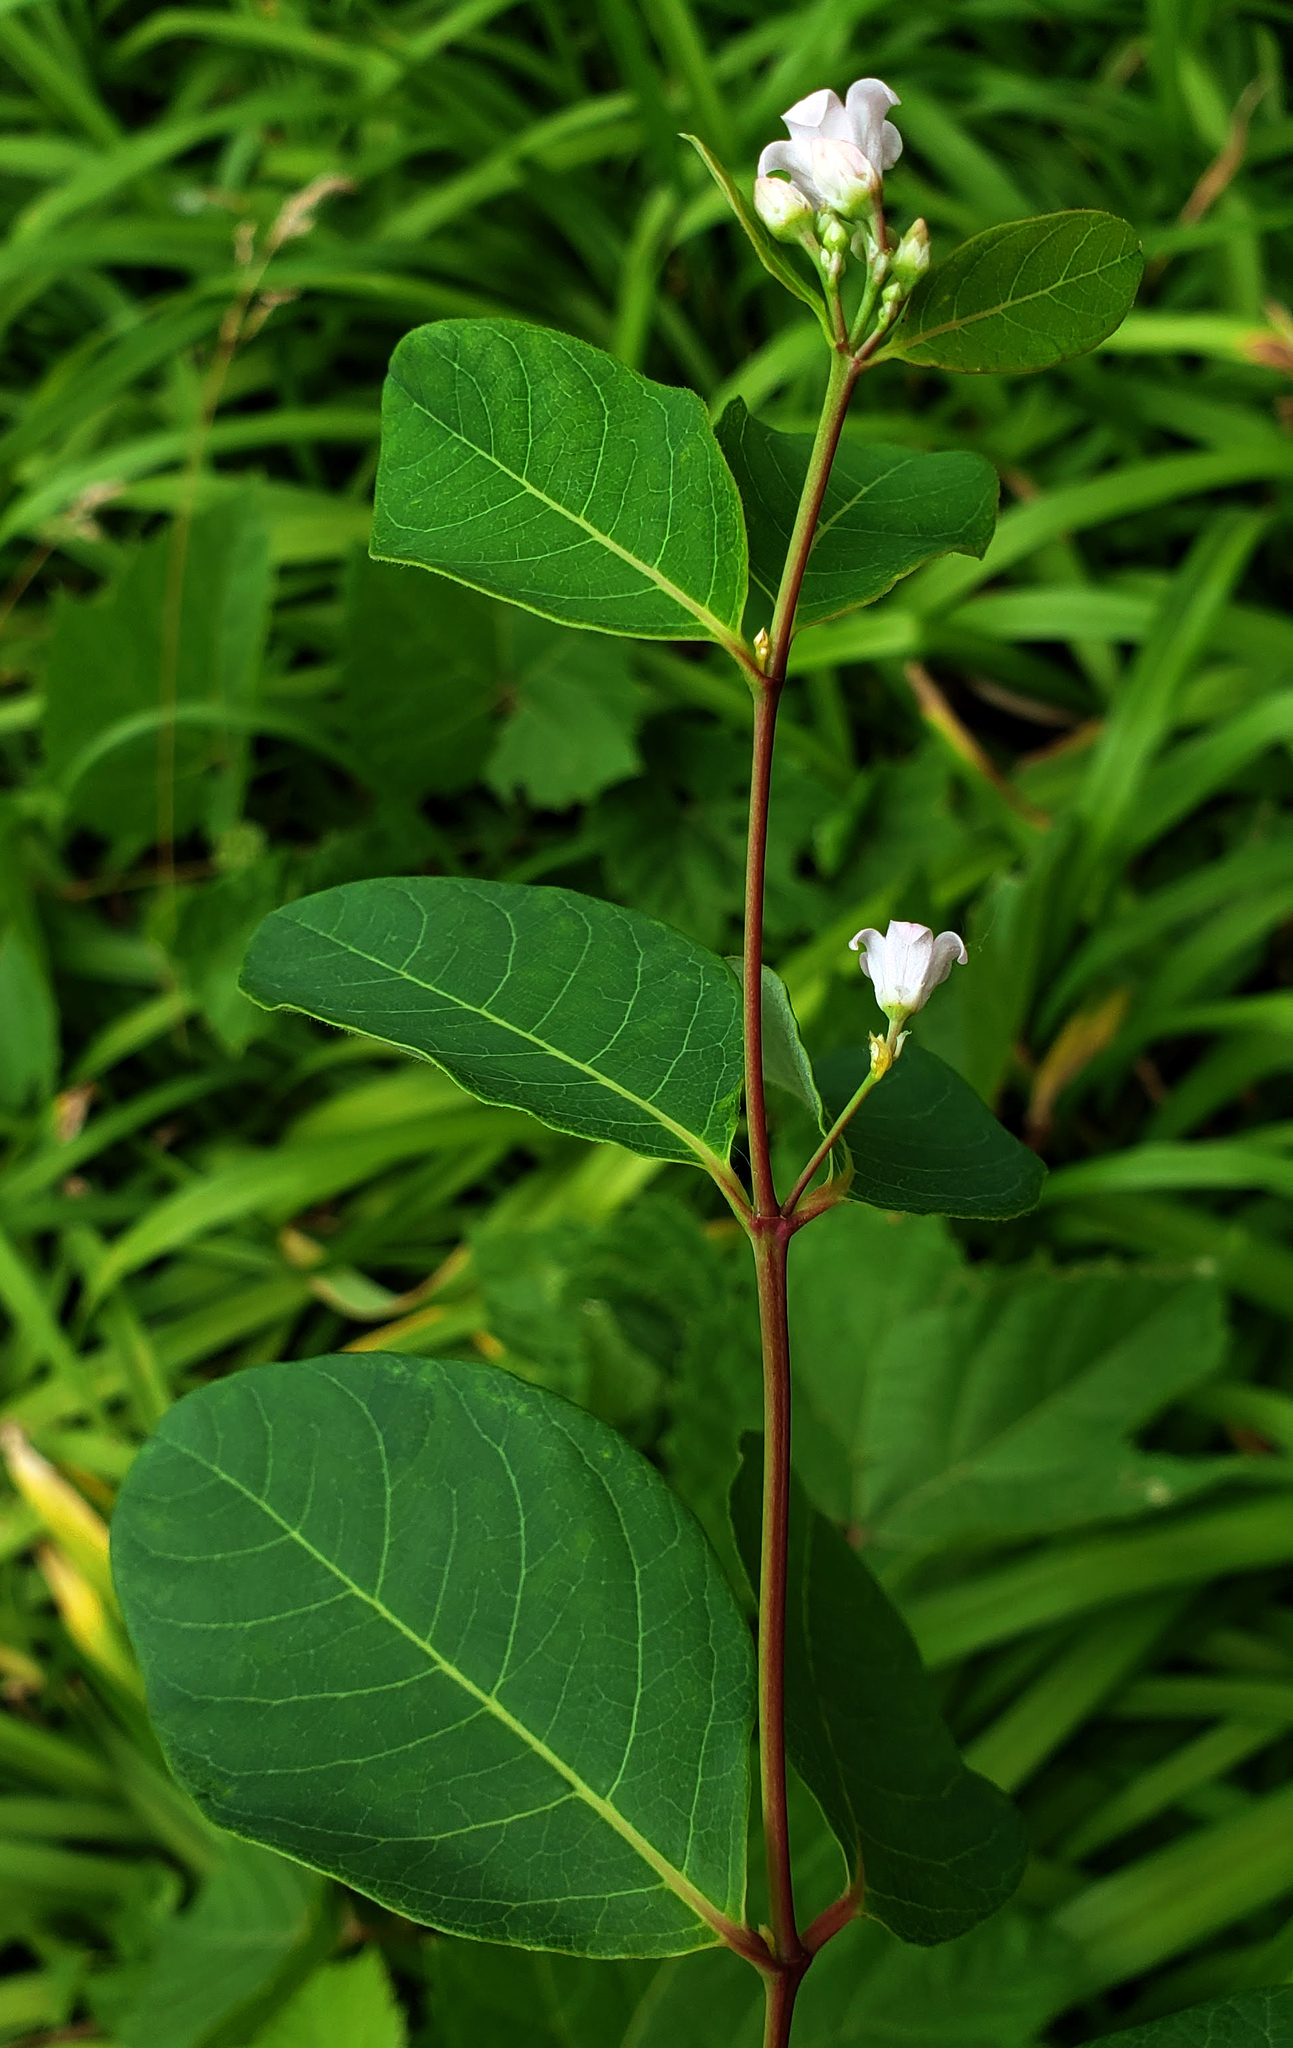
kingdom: Plantae
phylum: Tracheophyta
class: Magnoliopsida
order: Gentianales
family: Apocynaceae
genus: Apocynum
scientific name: Apocynum androsaemifolium
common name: Spreading dogbane
